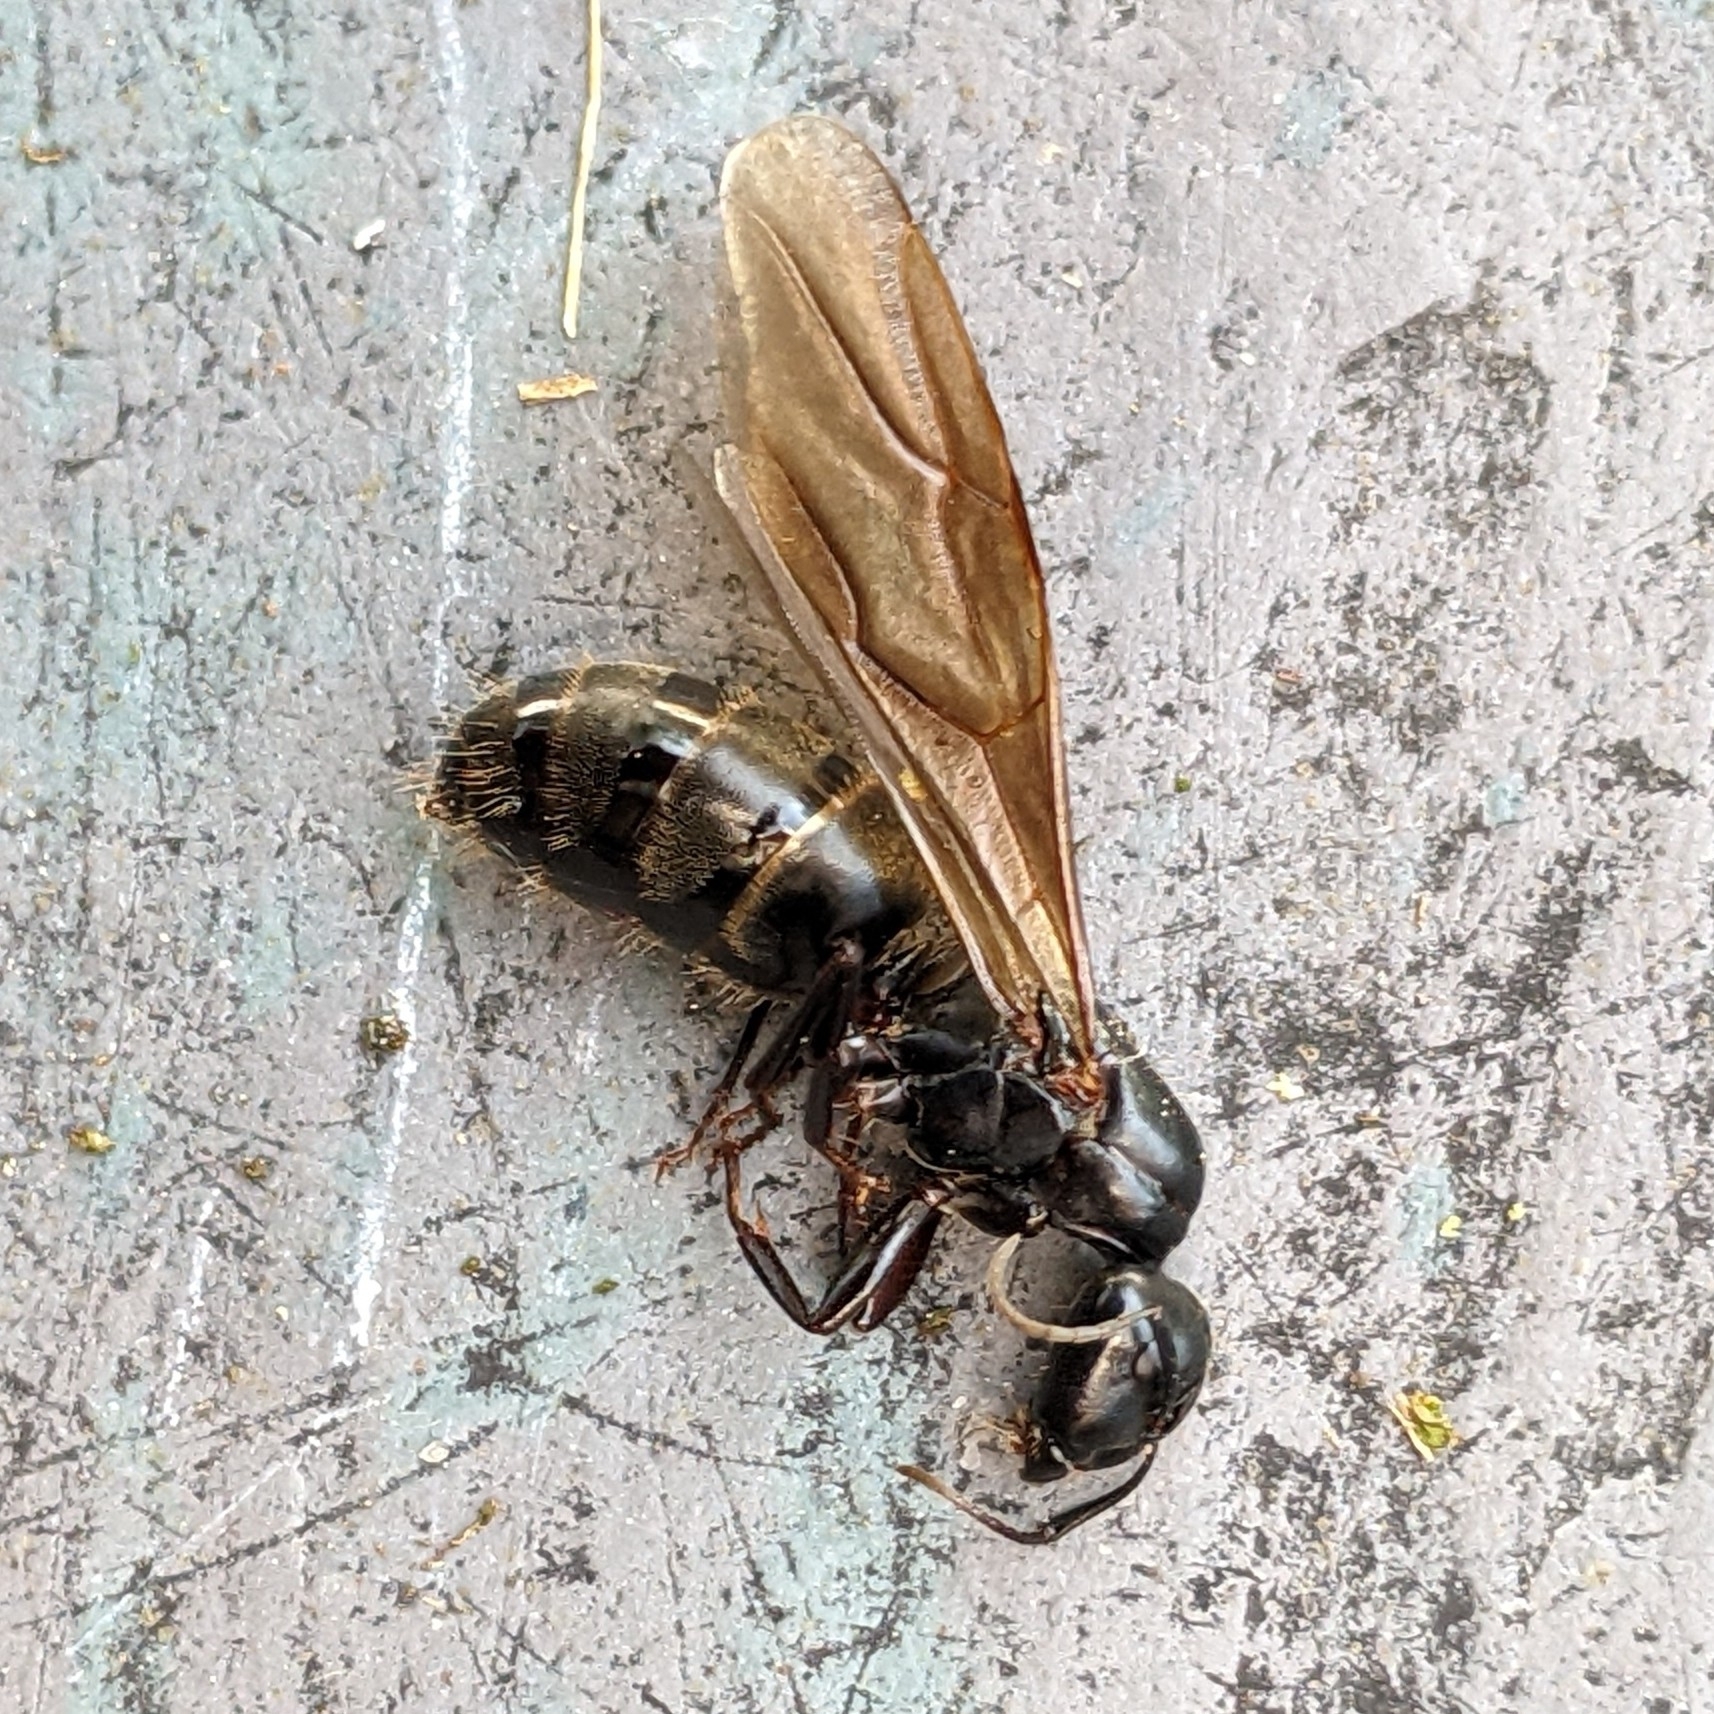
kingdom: Animalia
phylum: Arthropoda
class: Insecta
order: Hymenoptera
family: Formicidae
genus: Camponotus
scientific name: Camponotus pennsylvanicus
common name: Black carpenter ant
